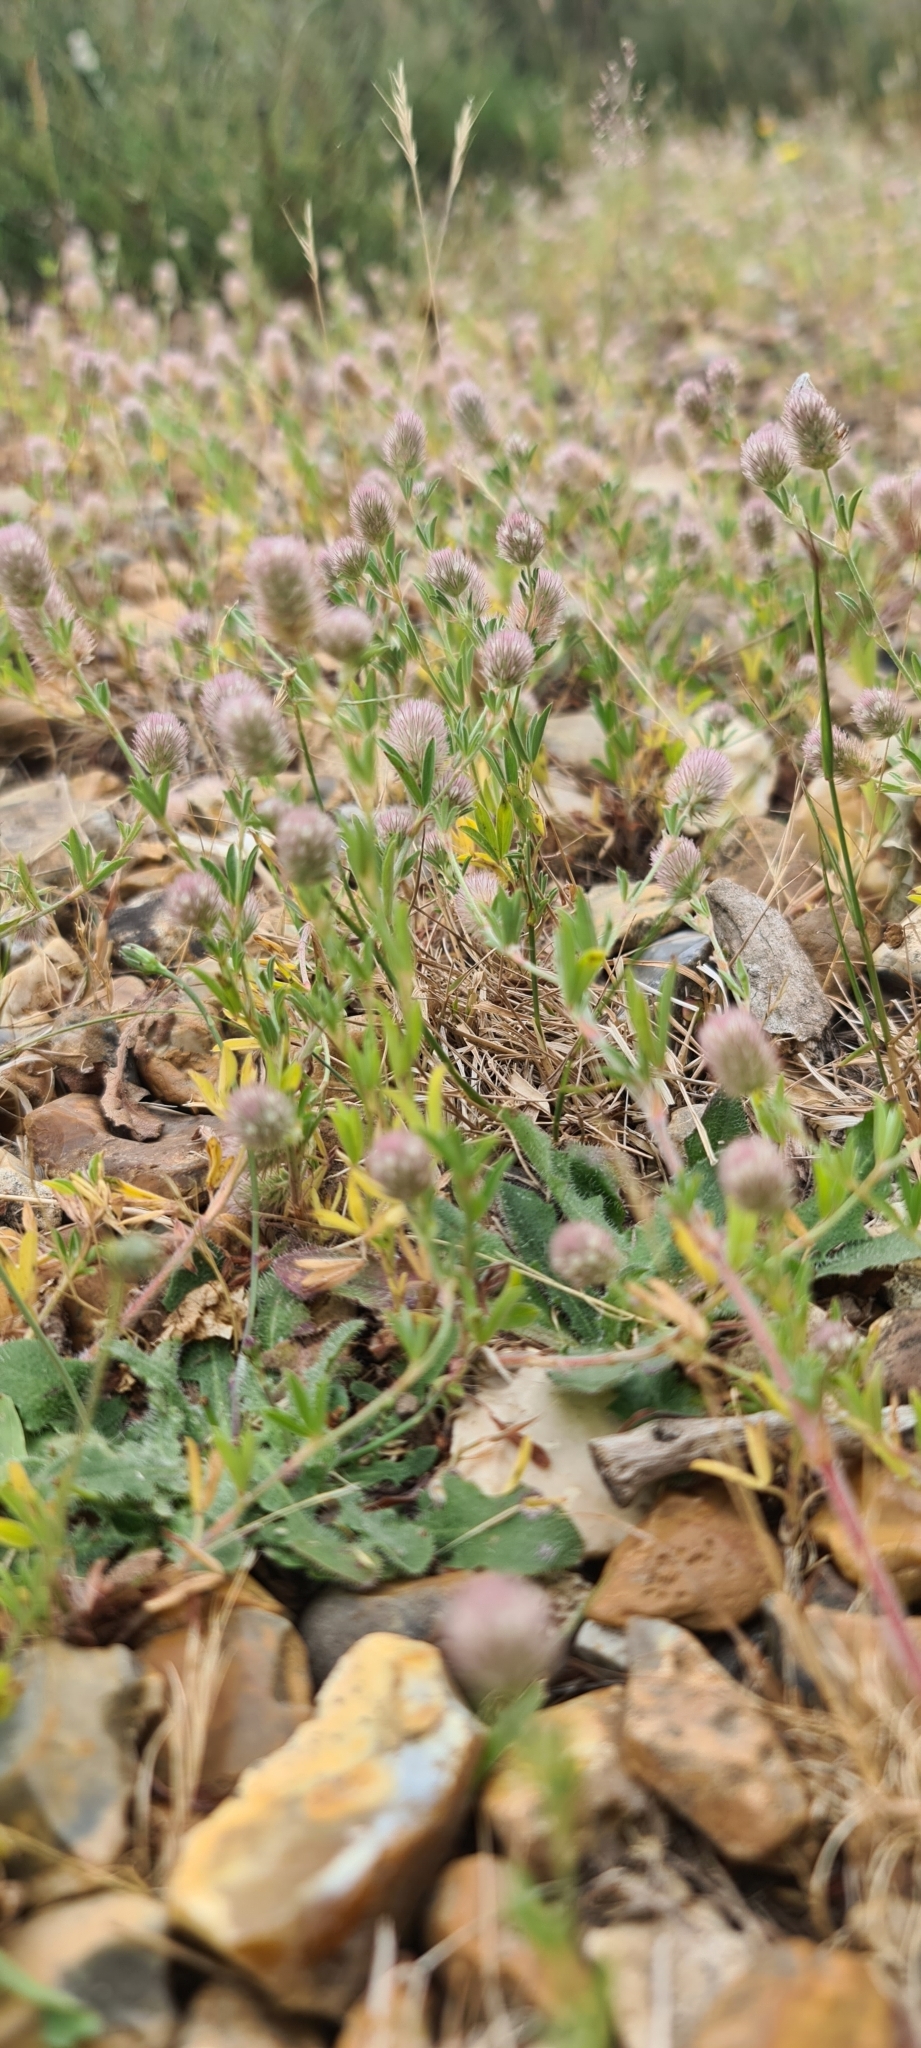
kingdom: Plantae
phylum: Tracheophyta
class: Magnoliopsida
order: Fabales
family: Fabaceae
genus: Trifolium
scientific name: Trifolium arvense
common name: Hare's-foot clover
